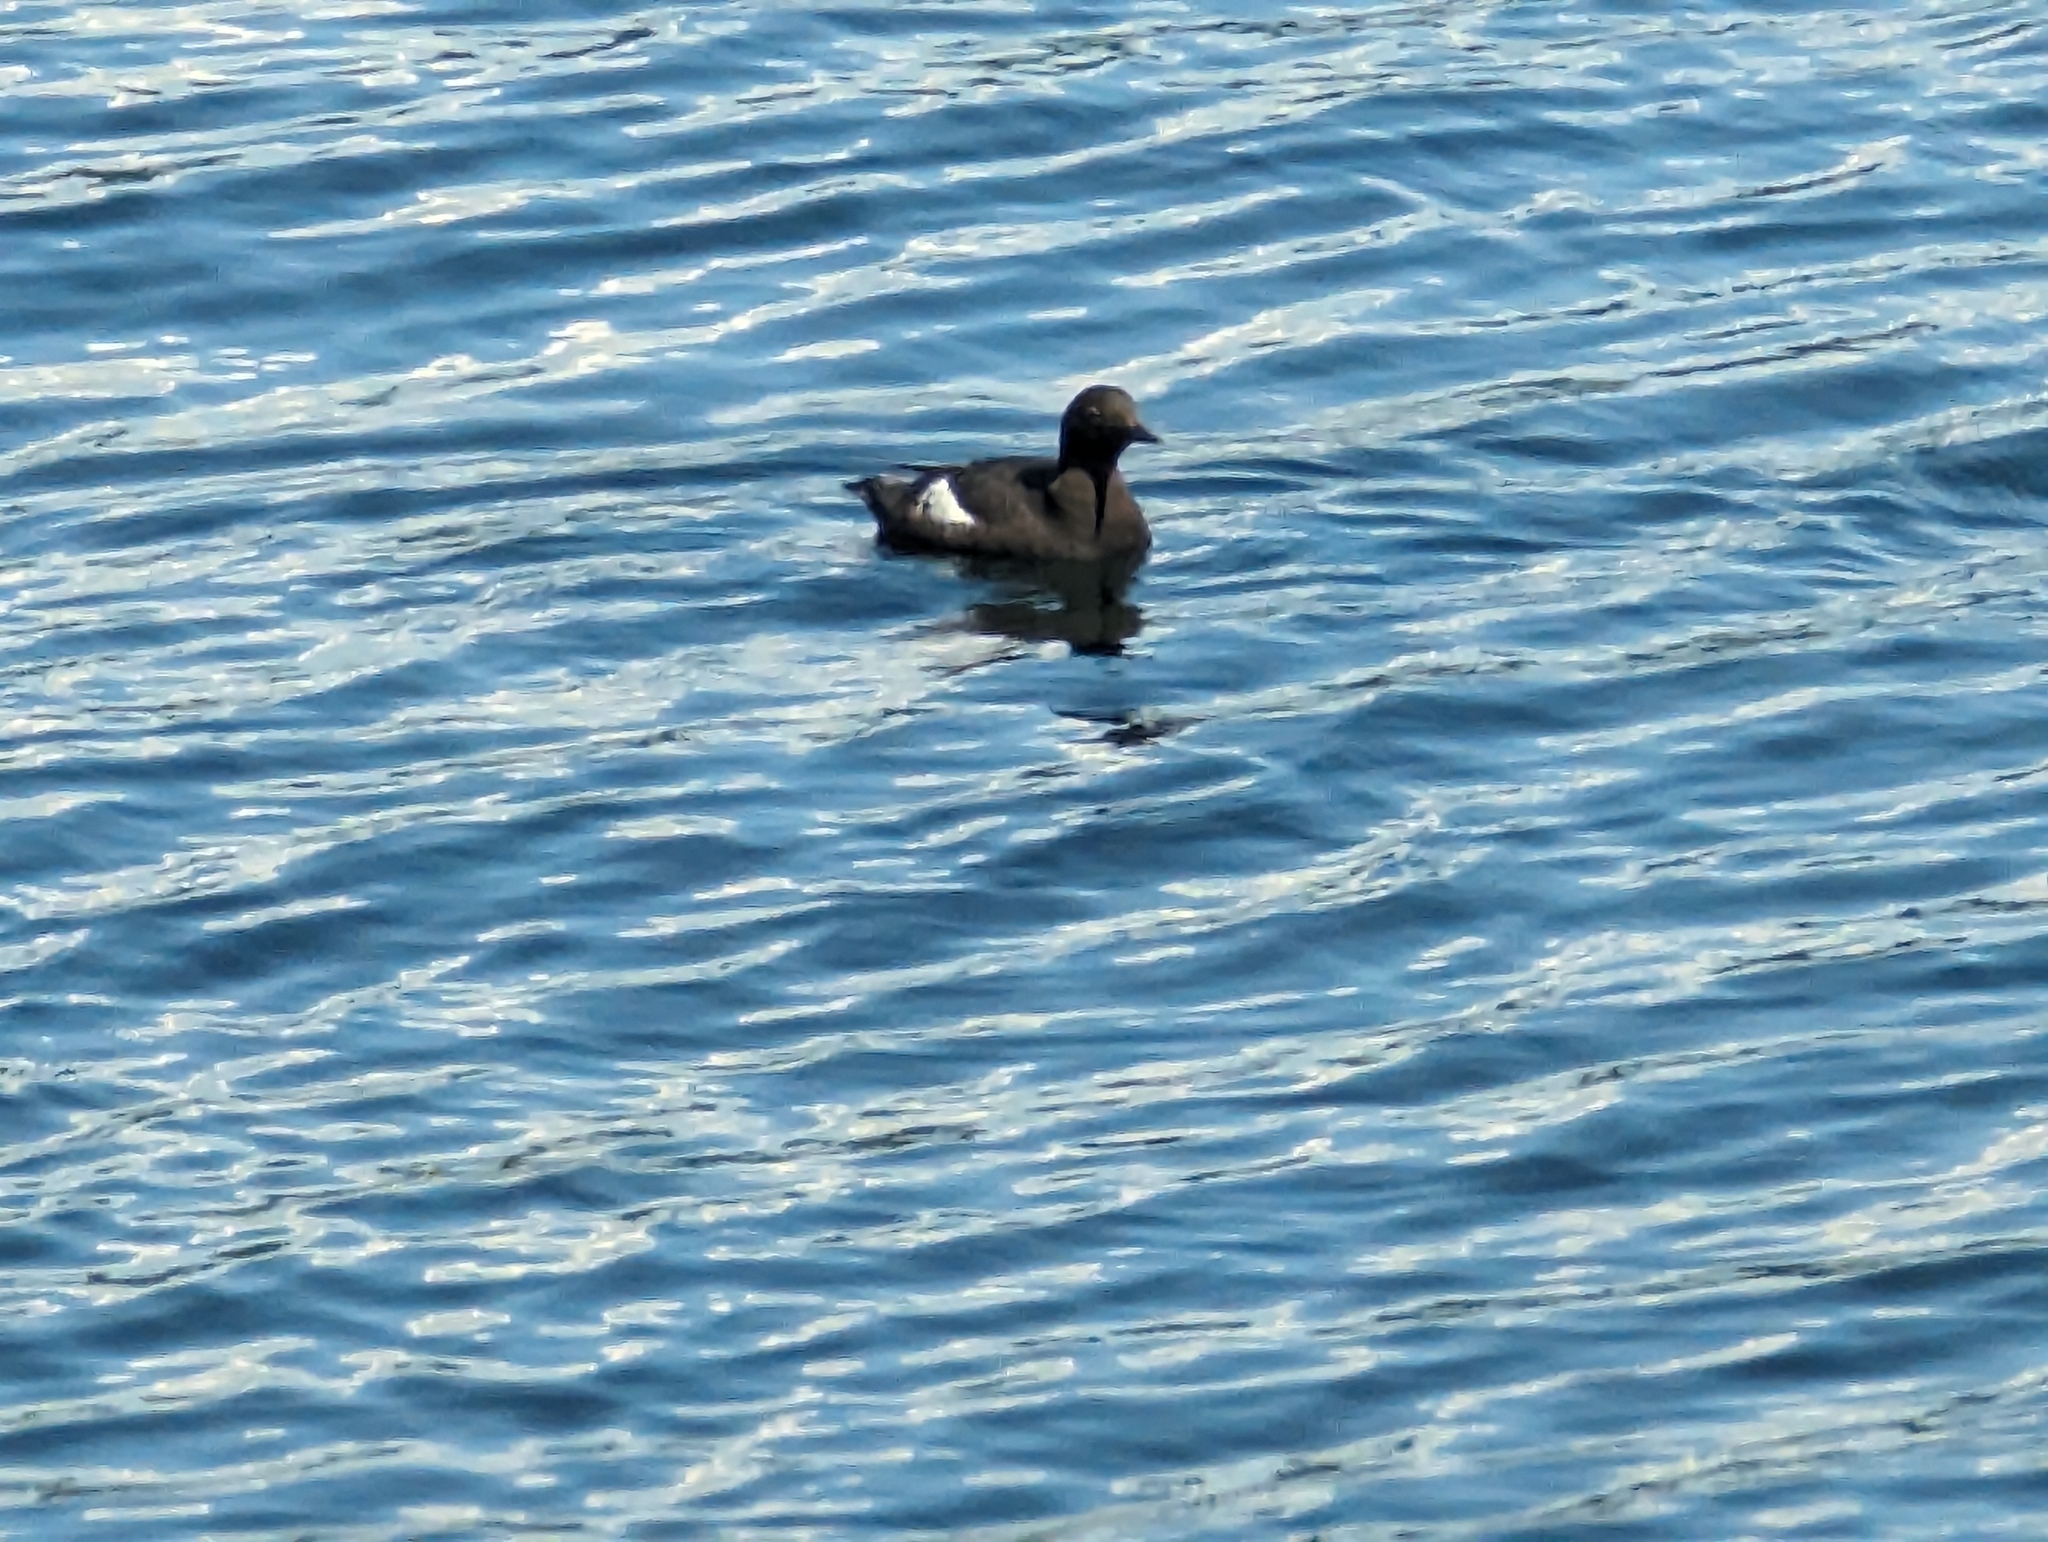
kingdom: Animalia
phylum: Chordata
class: Aves
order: Charadriiformes
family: Alcidae
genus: Cepphus
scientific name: Cepphus columba
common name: Pigeon guillemot
